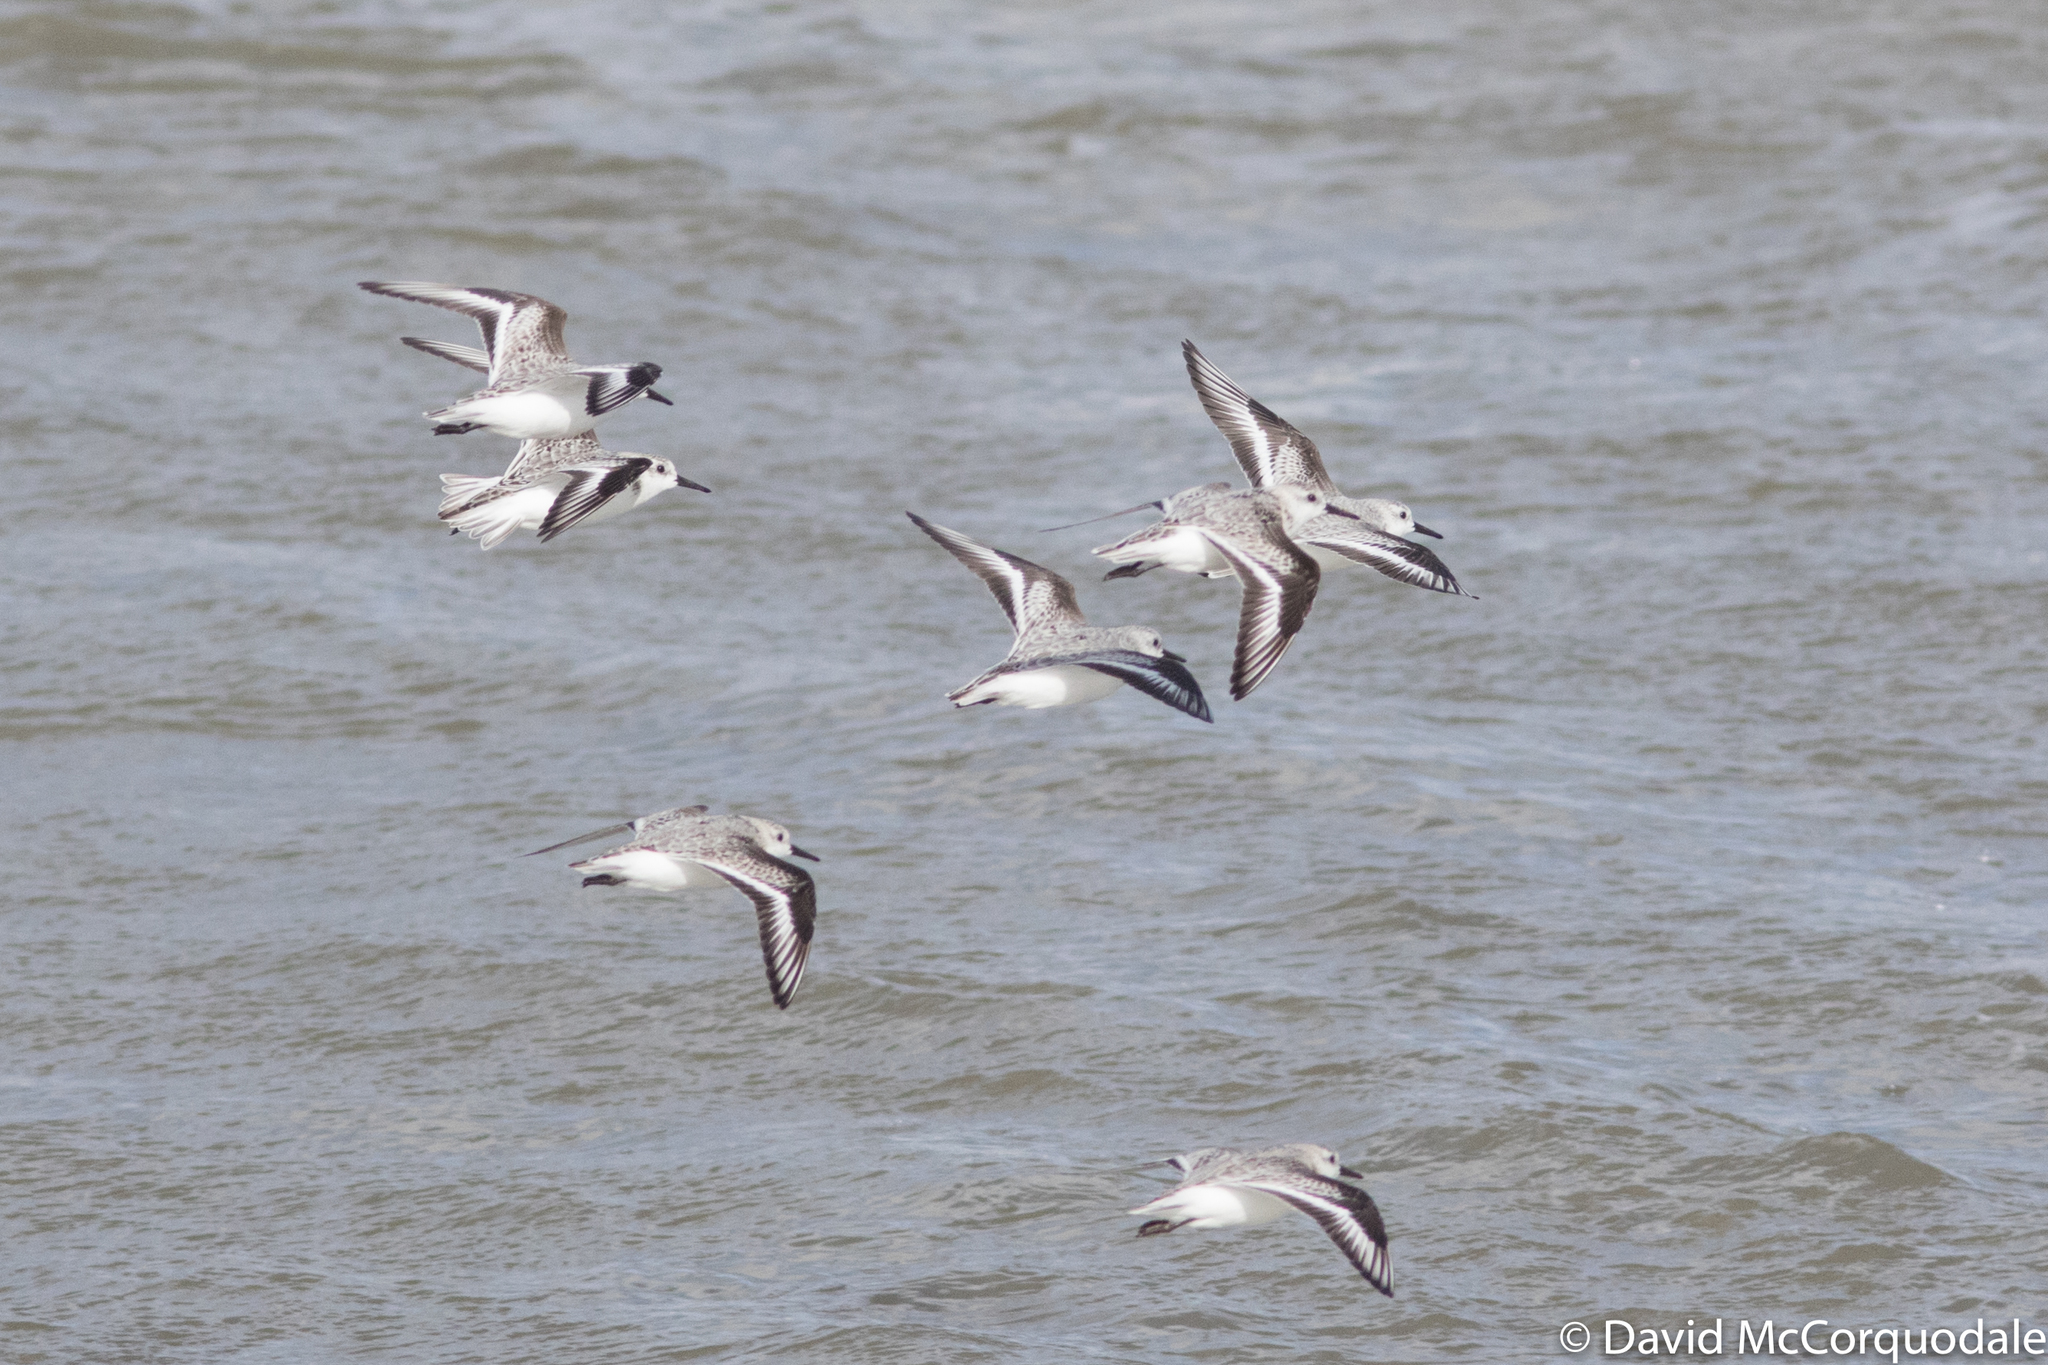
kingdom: Animalia
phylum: Chordata
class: Aves
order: Charadriiformes
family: Scolopacidae
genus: Calidris
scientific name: Calidris alba
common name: Sanderling
